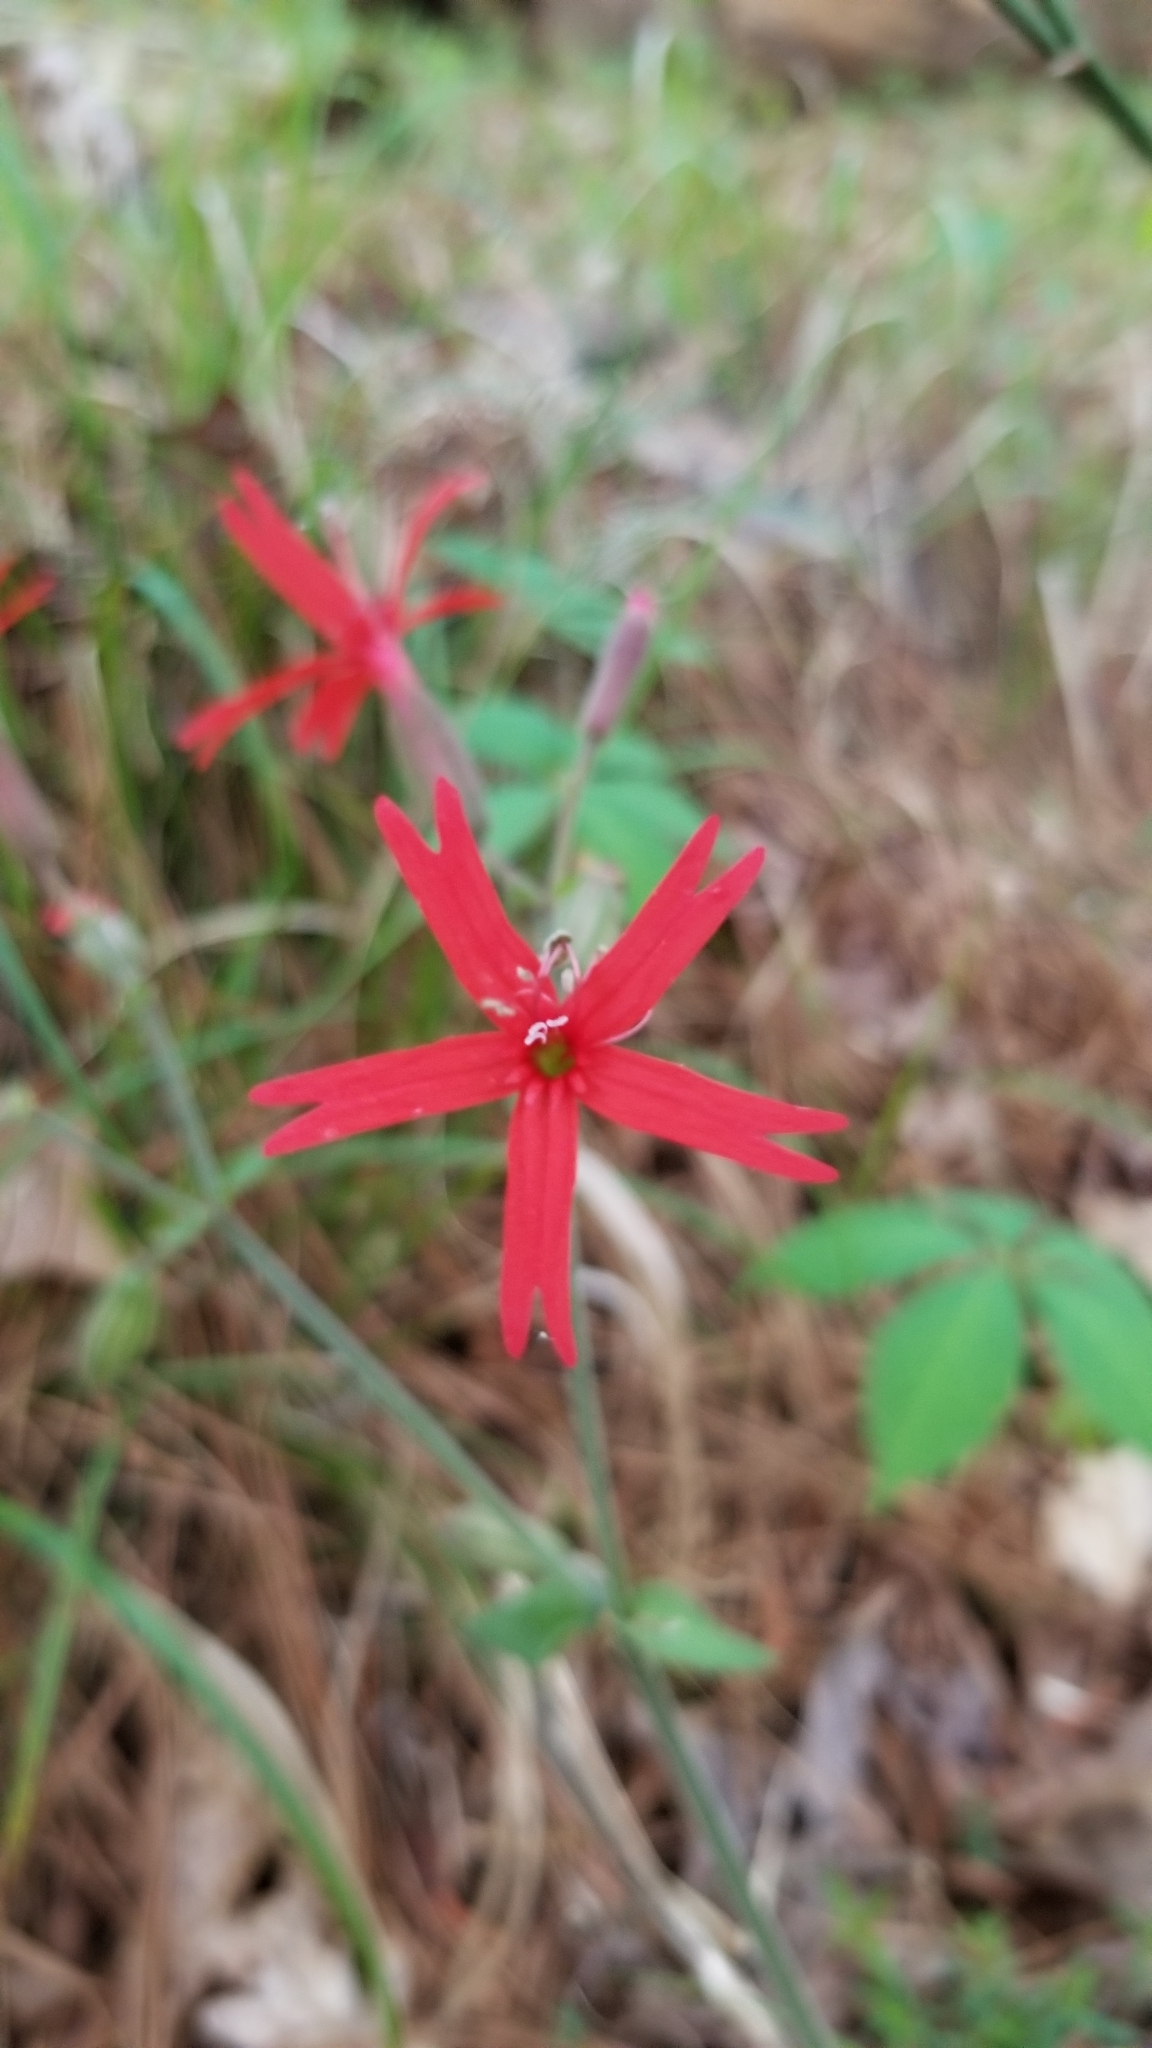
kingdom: Plantae
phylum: Tracheophyta
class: Magnoliopsida
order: Caryophyllales
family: Caryophyllaceae
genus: Silene
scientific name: Silene virginica
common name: Fire-pink
